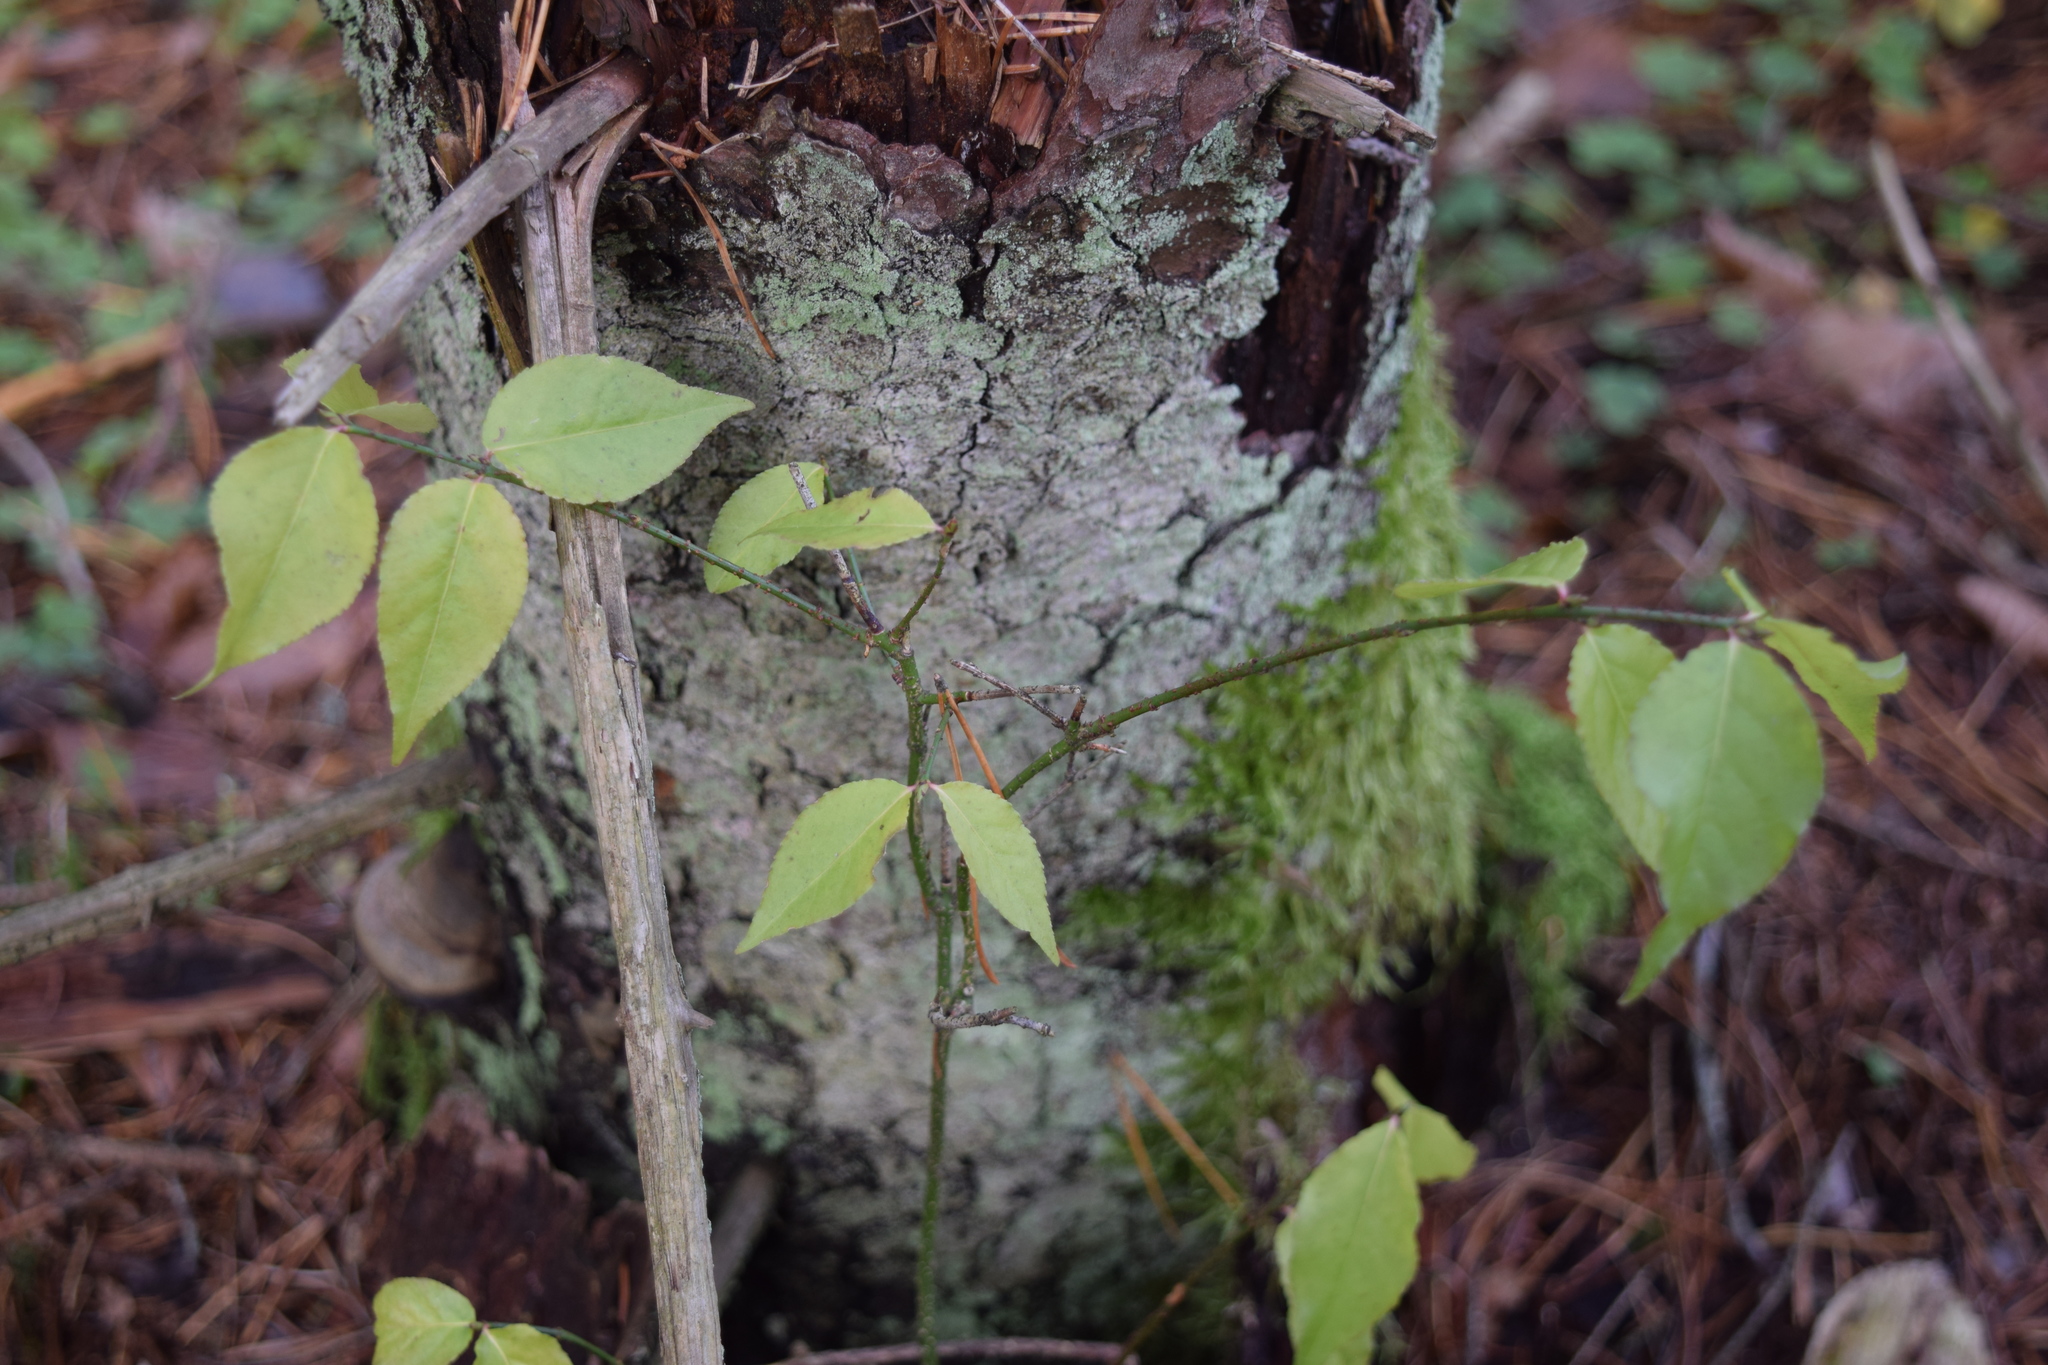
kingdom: Plantae
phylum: Tracheophyta
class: Magnoliopsida
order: Celastrales
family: Celastraceae
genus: Euonymus
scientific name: Euonymus verrucosus
